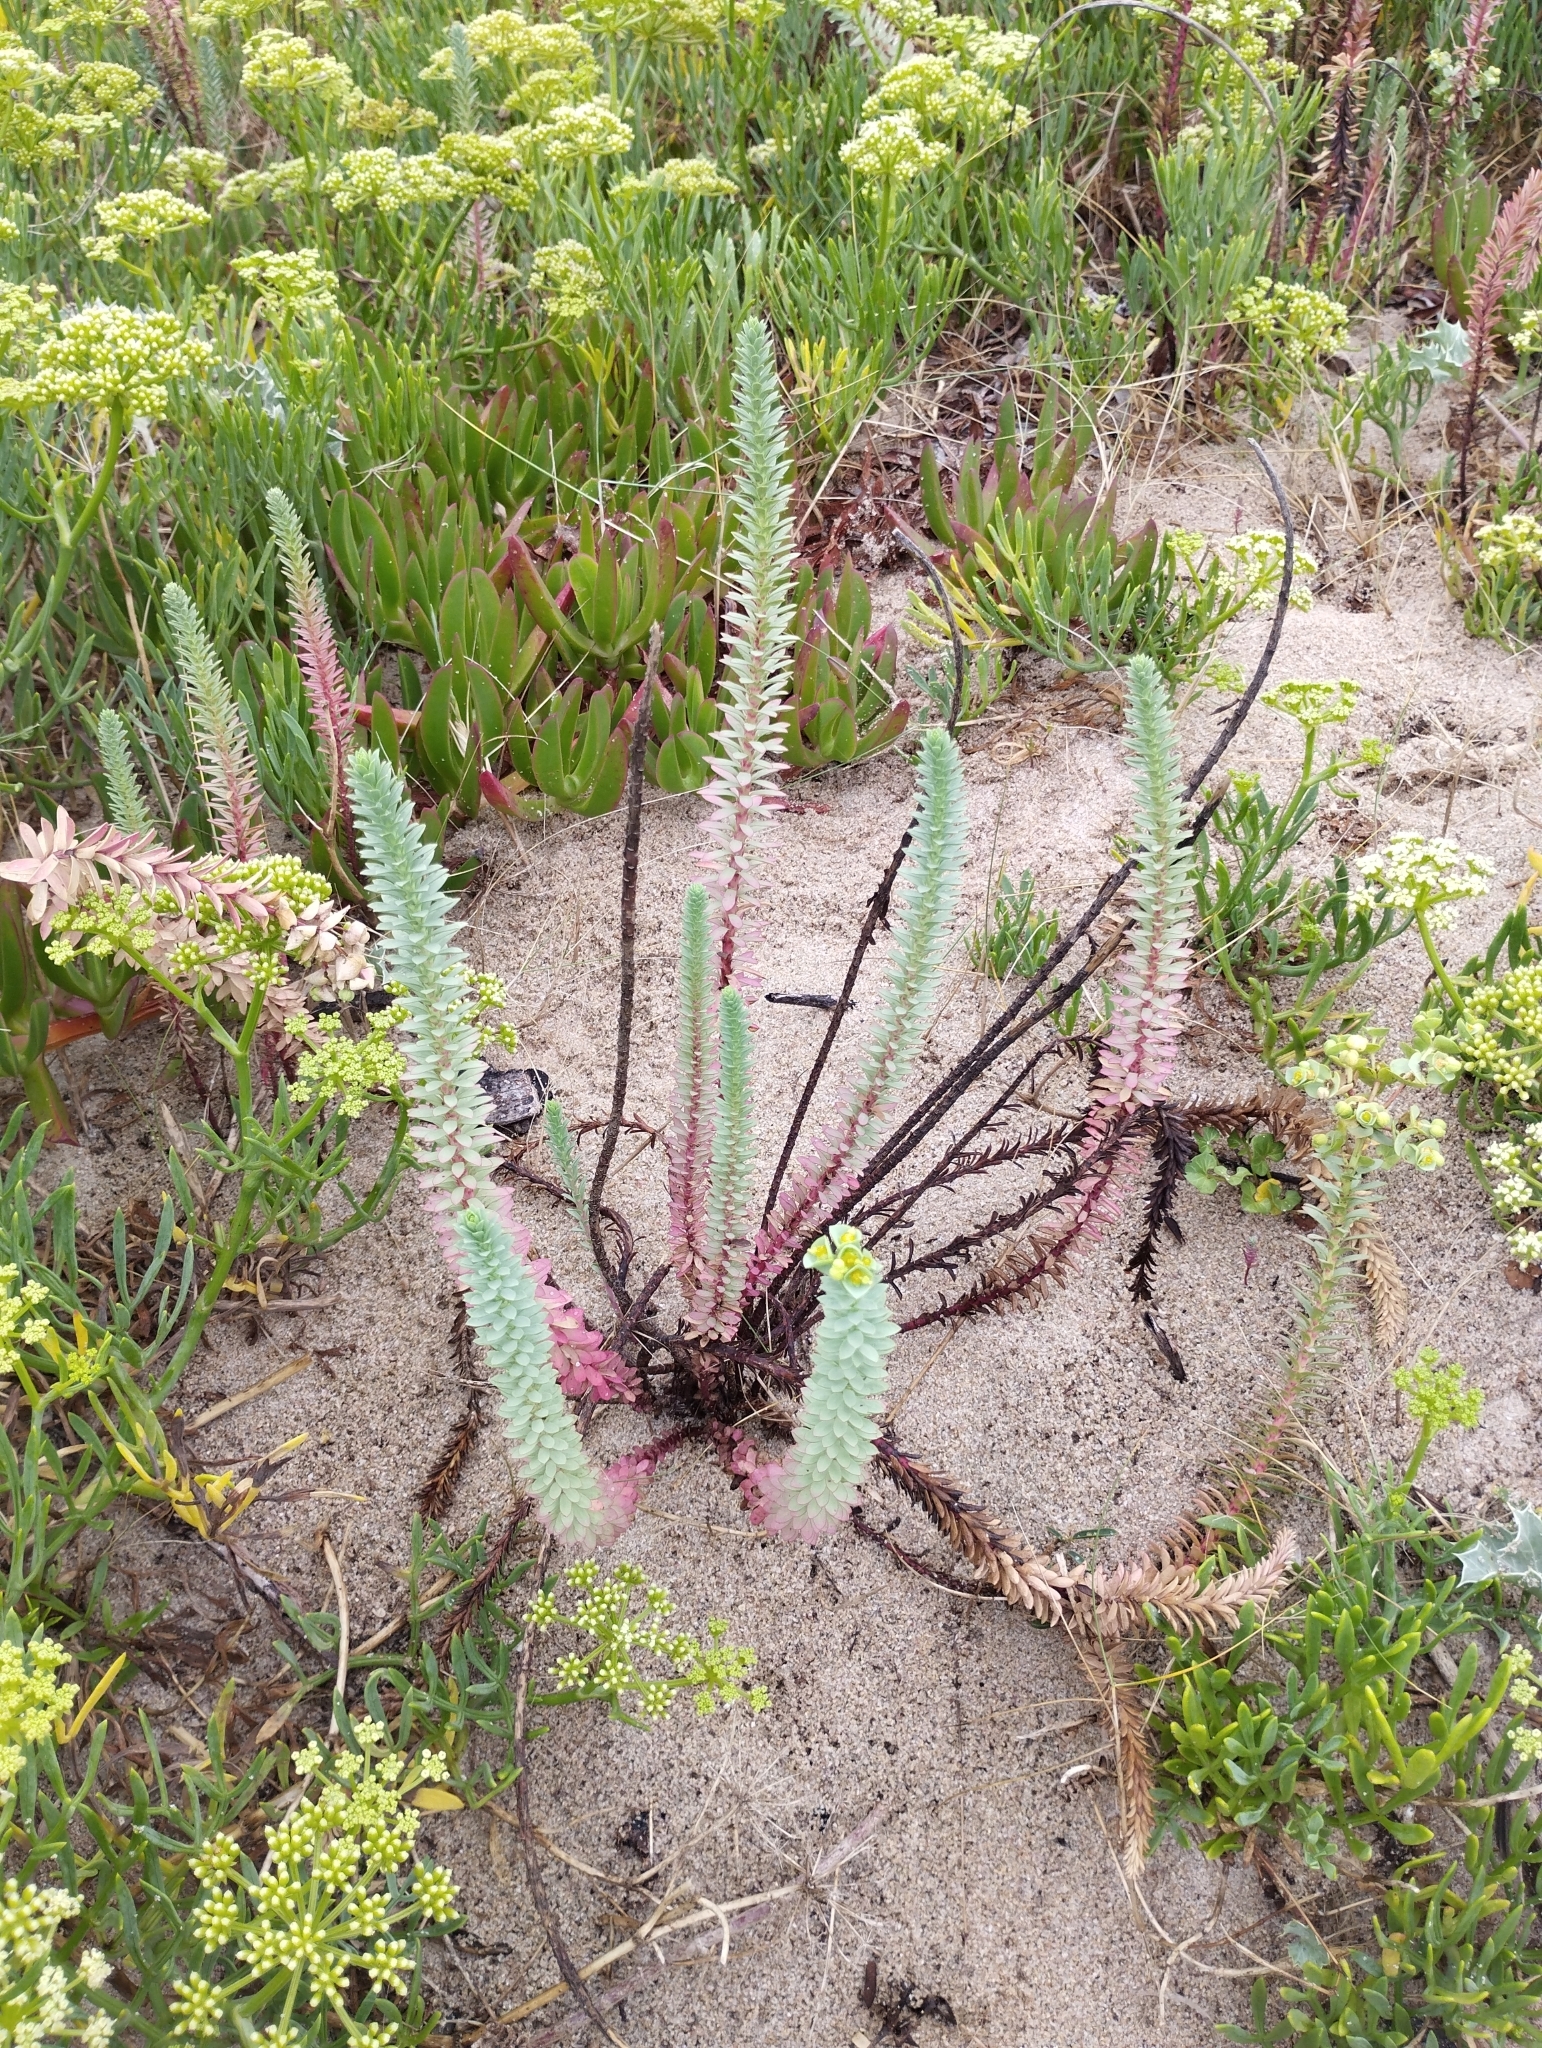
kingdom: Plantae
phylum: Tracheophyta
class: Magnoliopsida
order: Malpighiales
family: Euphorbiaceae
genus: Euphorbia
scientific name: Euphorbia paralias
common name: Sea spurge
